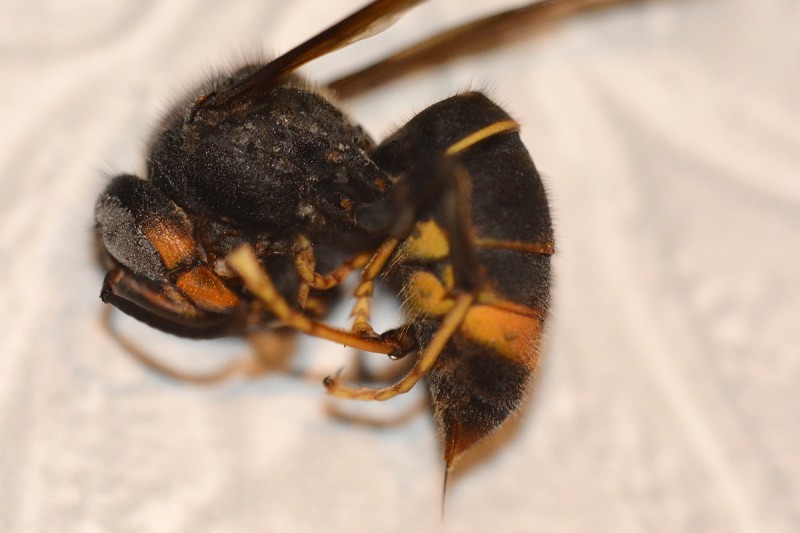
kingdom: Animalia
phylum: Arthropoda
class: Insecta
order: Hymenoptera
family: Vespidae
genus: Vespa
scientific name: Vespa velutina
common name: Asian hornet
